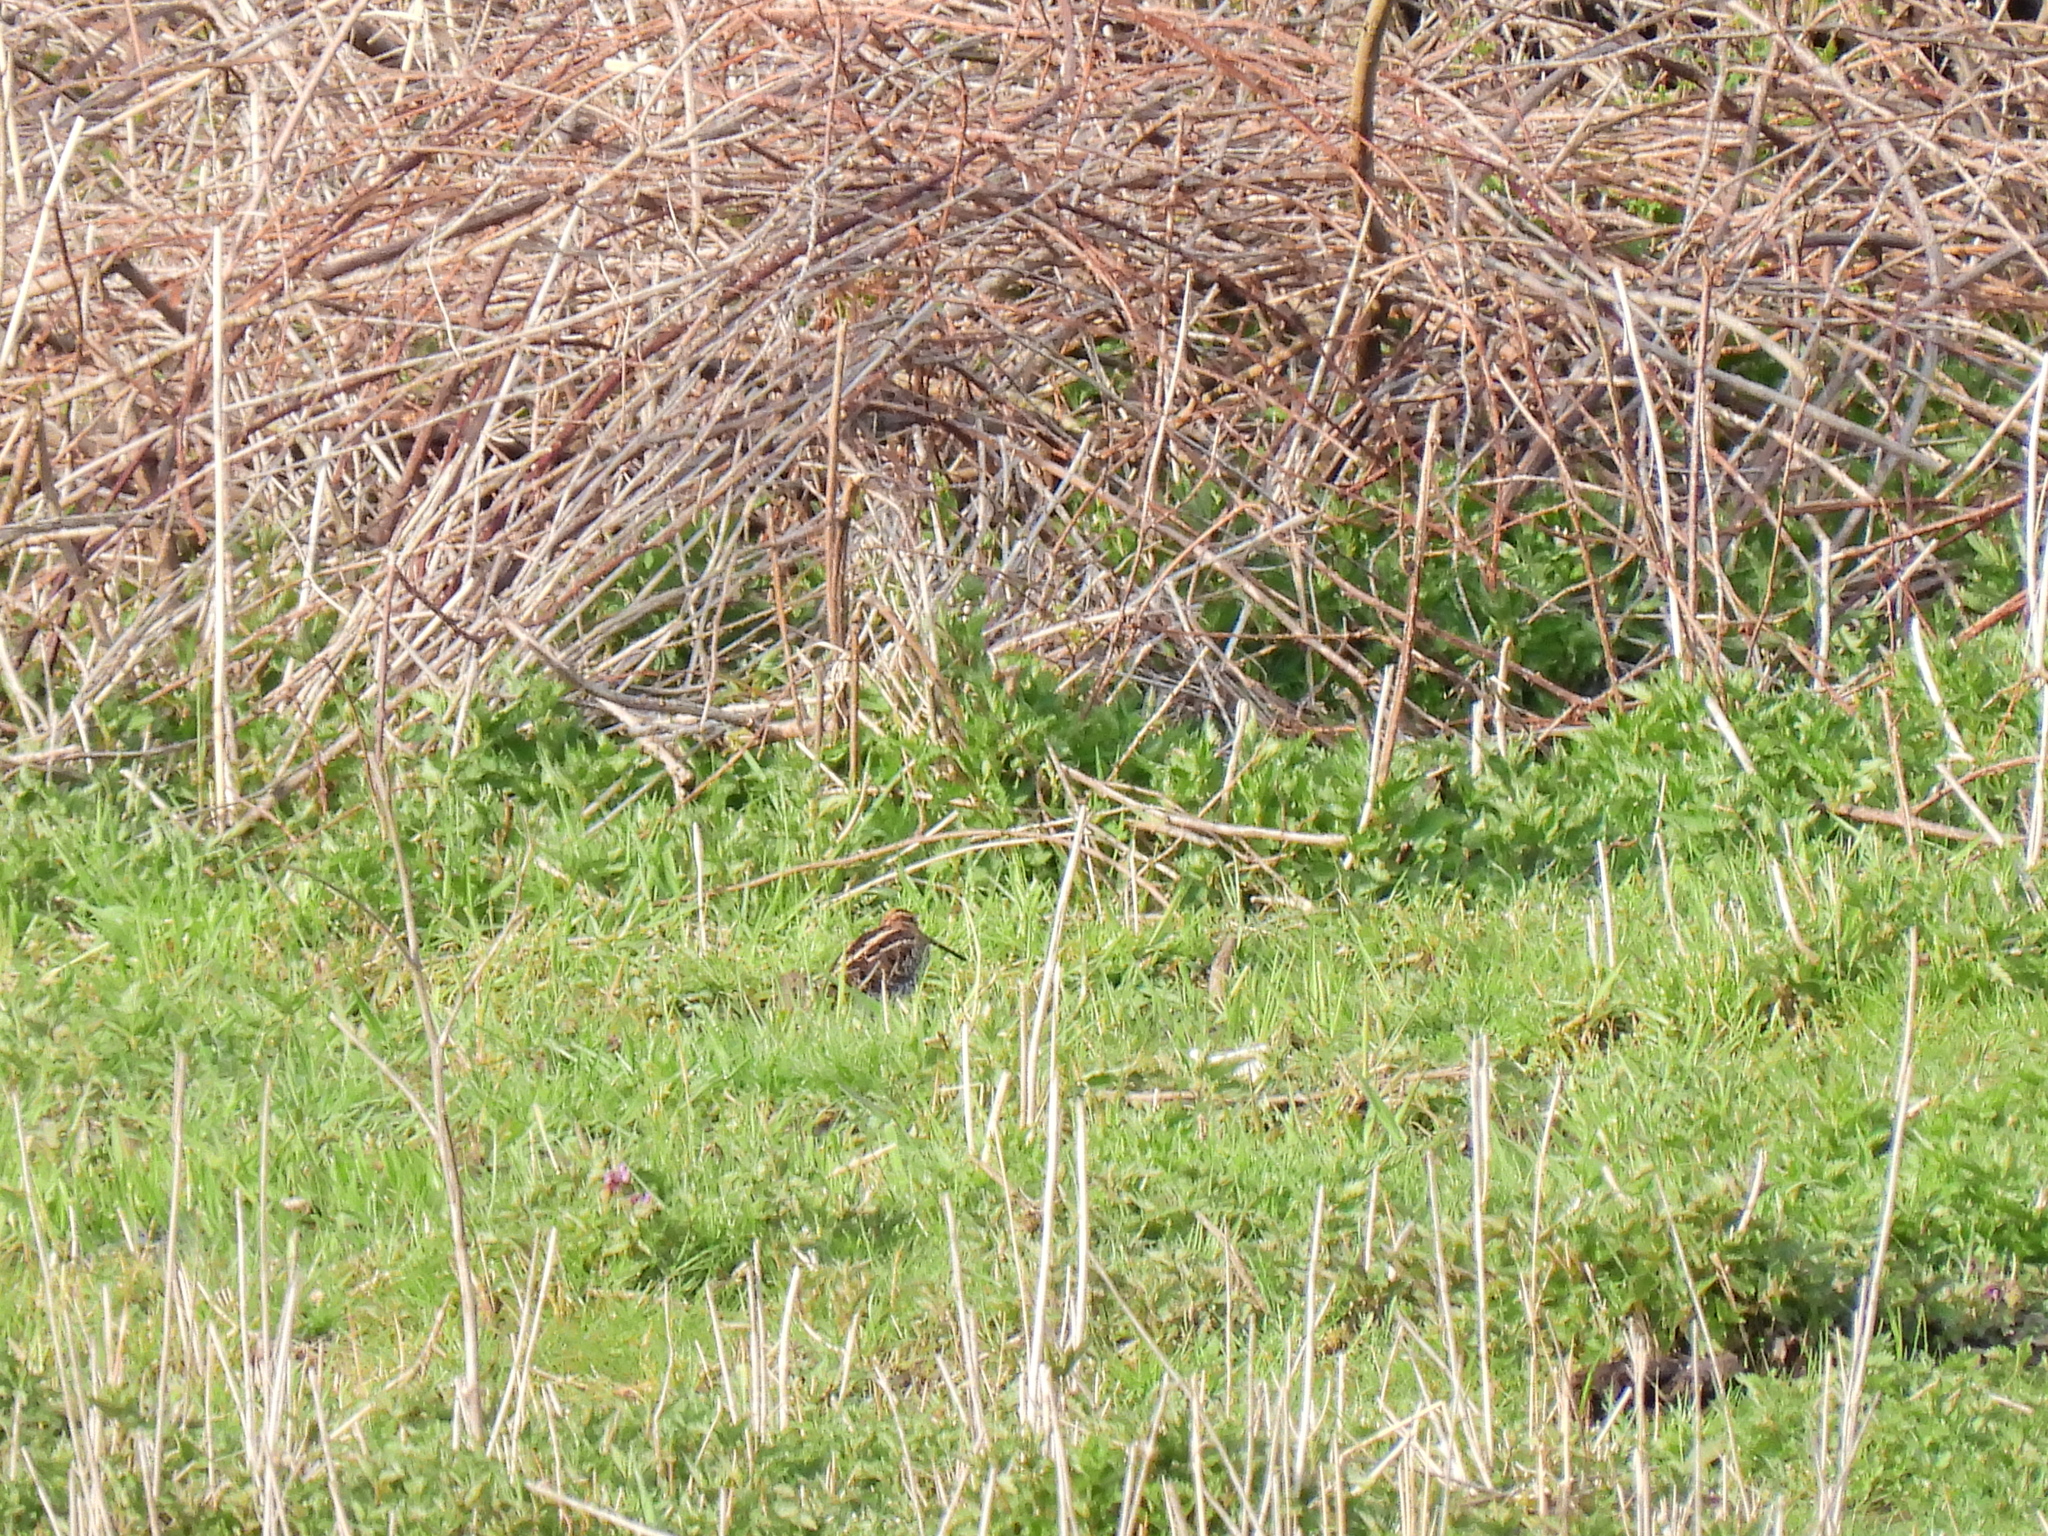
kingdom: Animalia
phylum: Chordata
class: Aves
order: Charadriiformes
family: Scolopacidae
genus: Gallinago
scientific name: Gallinago gallinago
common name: Common snipe
